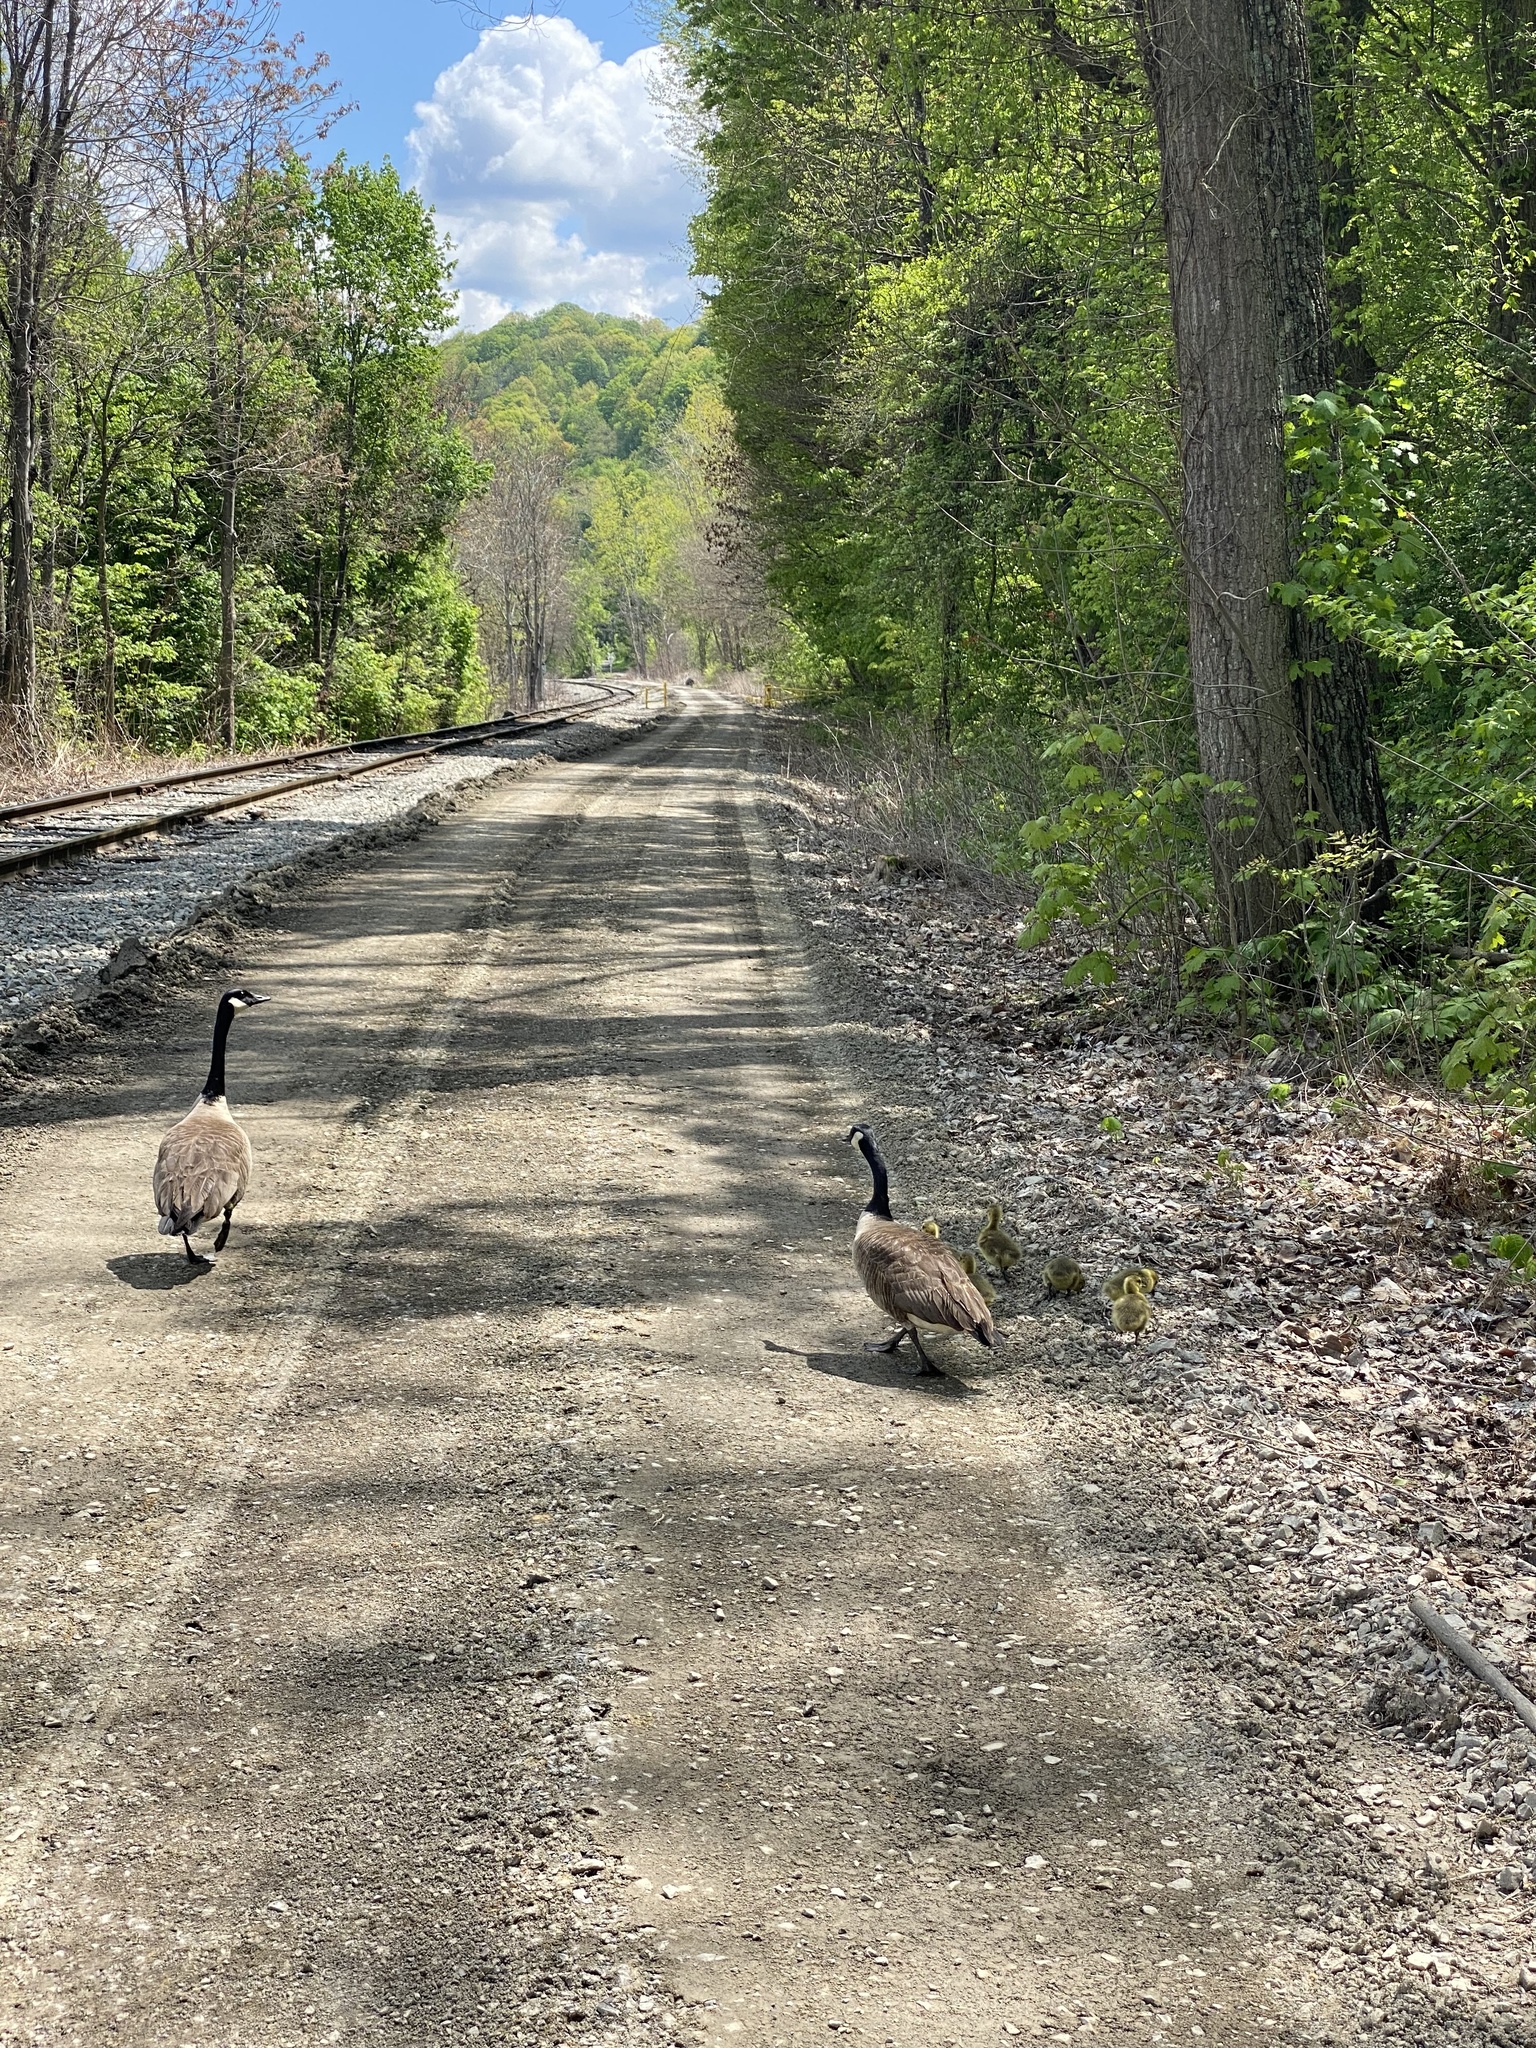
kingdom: Animalia
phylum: Chordata
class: Aves
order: Anseriformes
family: Anatidae
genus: Branta
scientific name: Branta canadensis
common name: Canada goose
